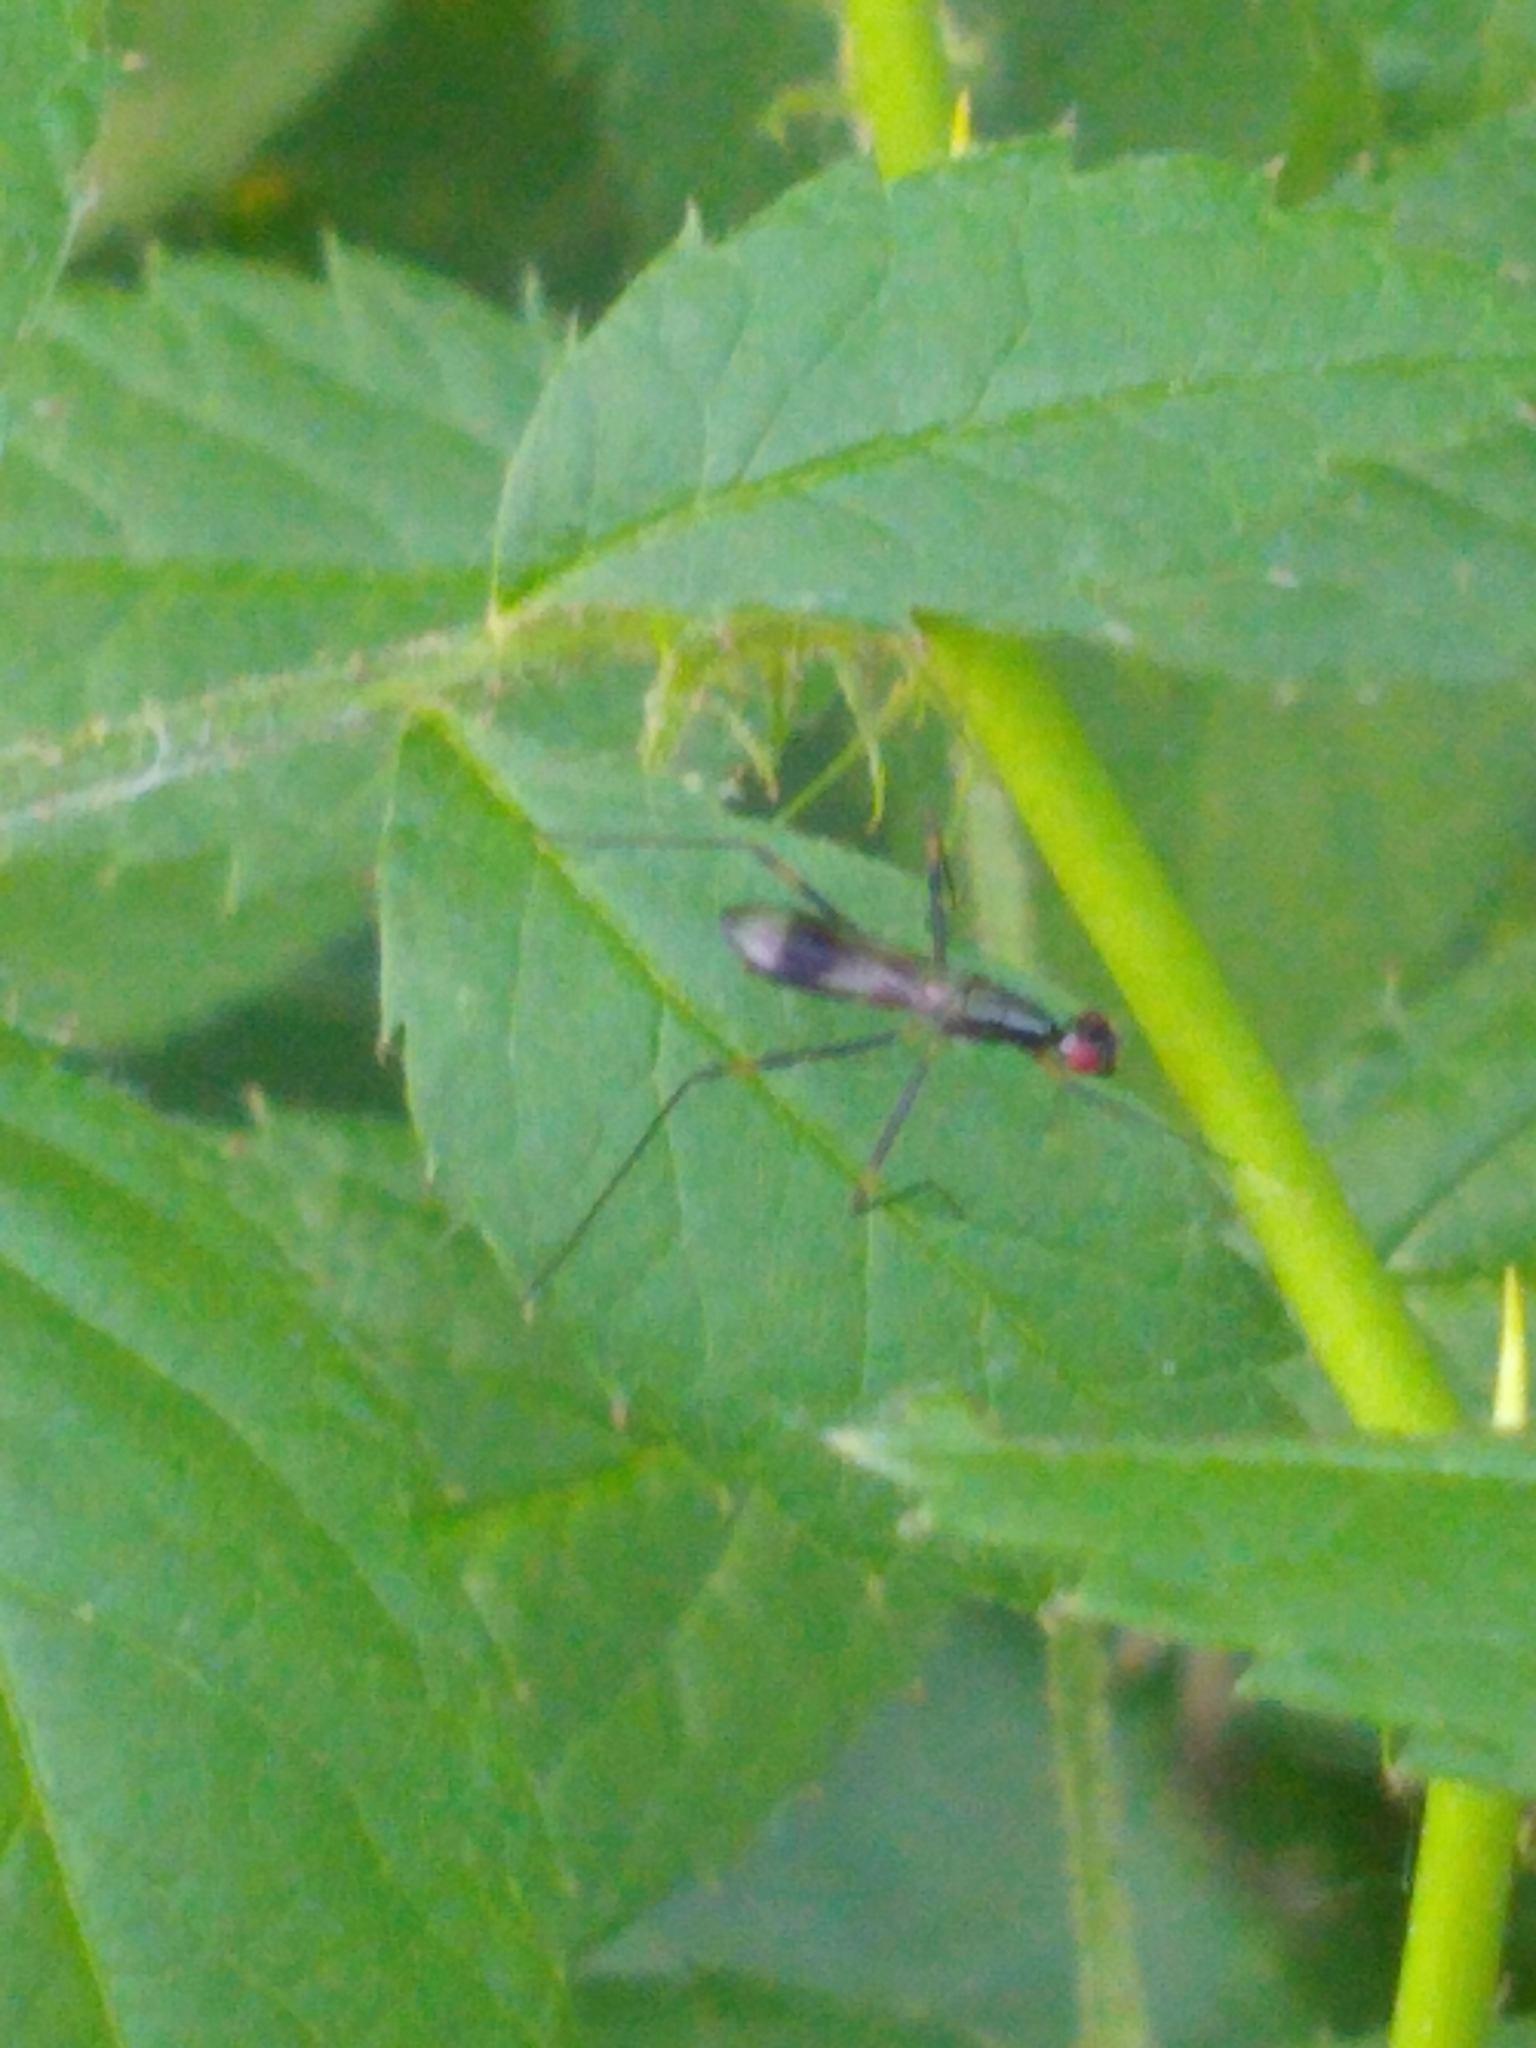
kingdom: Animalia
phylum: Arthropoda
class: Insecta
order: Diptera
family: Micropezidae
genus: Rainieria
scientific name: Rainieria antennaepes
